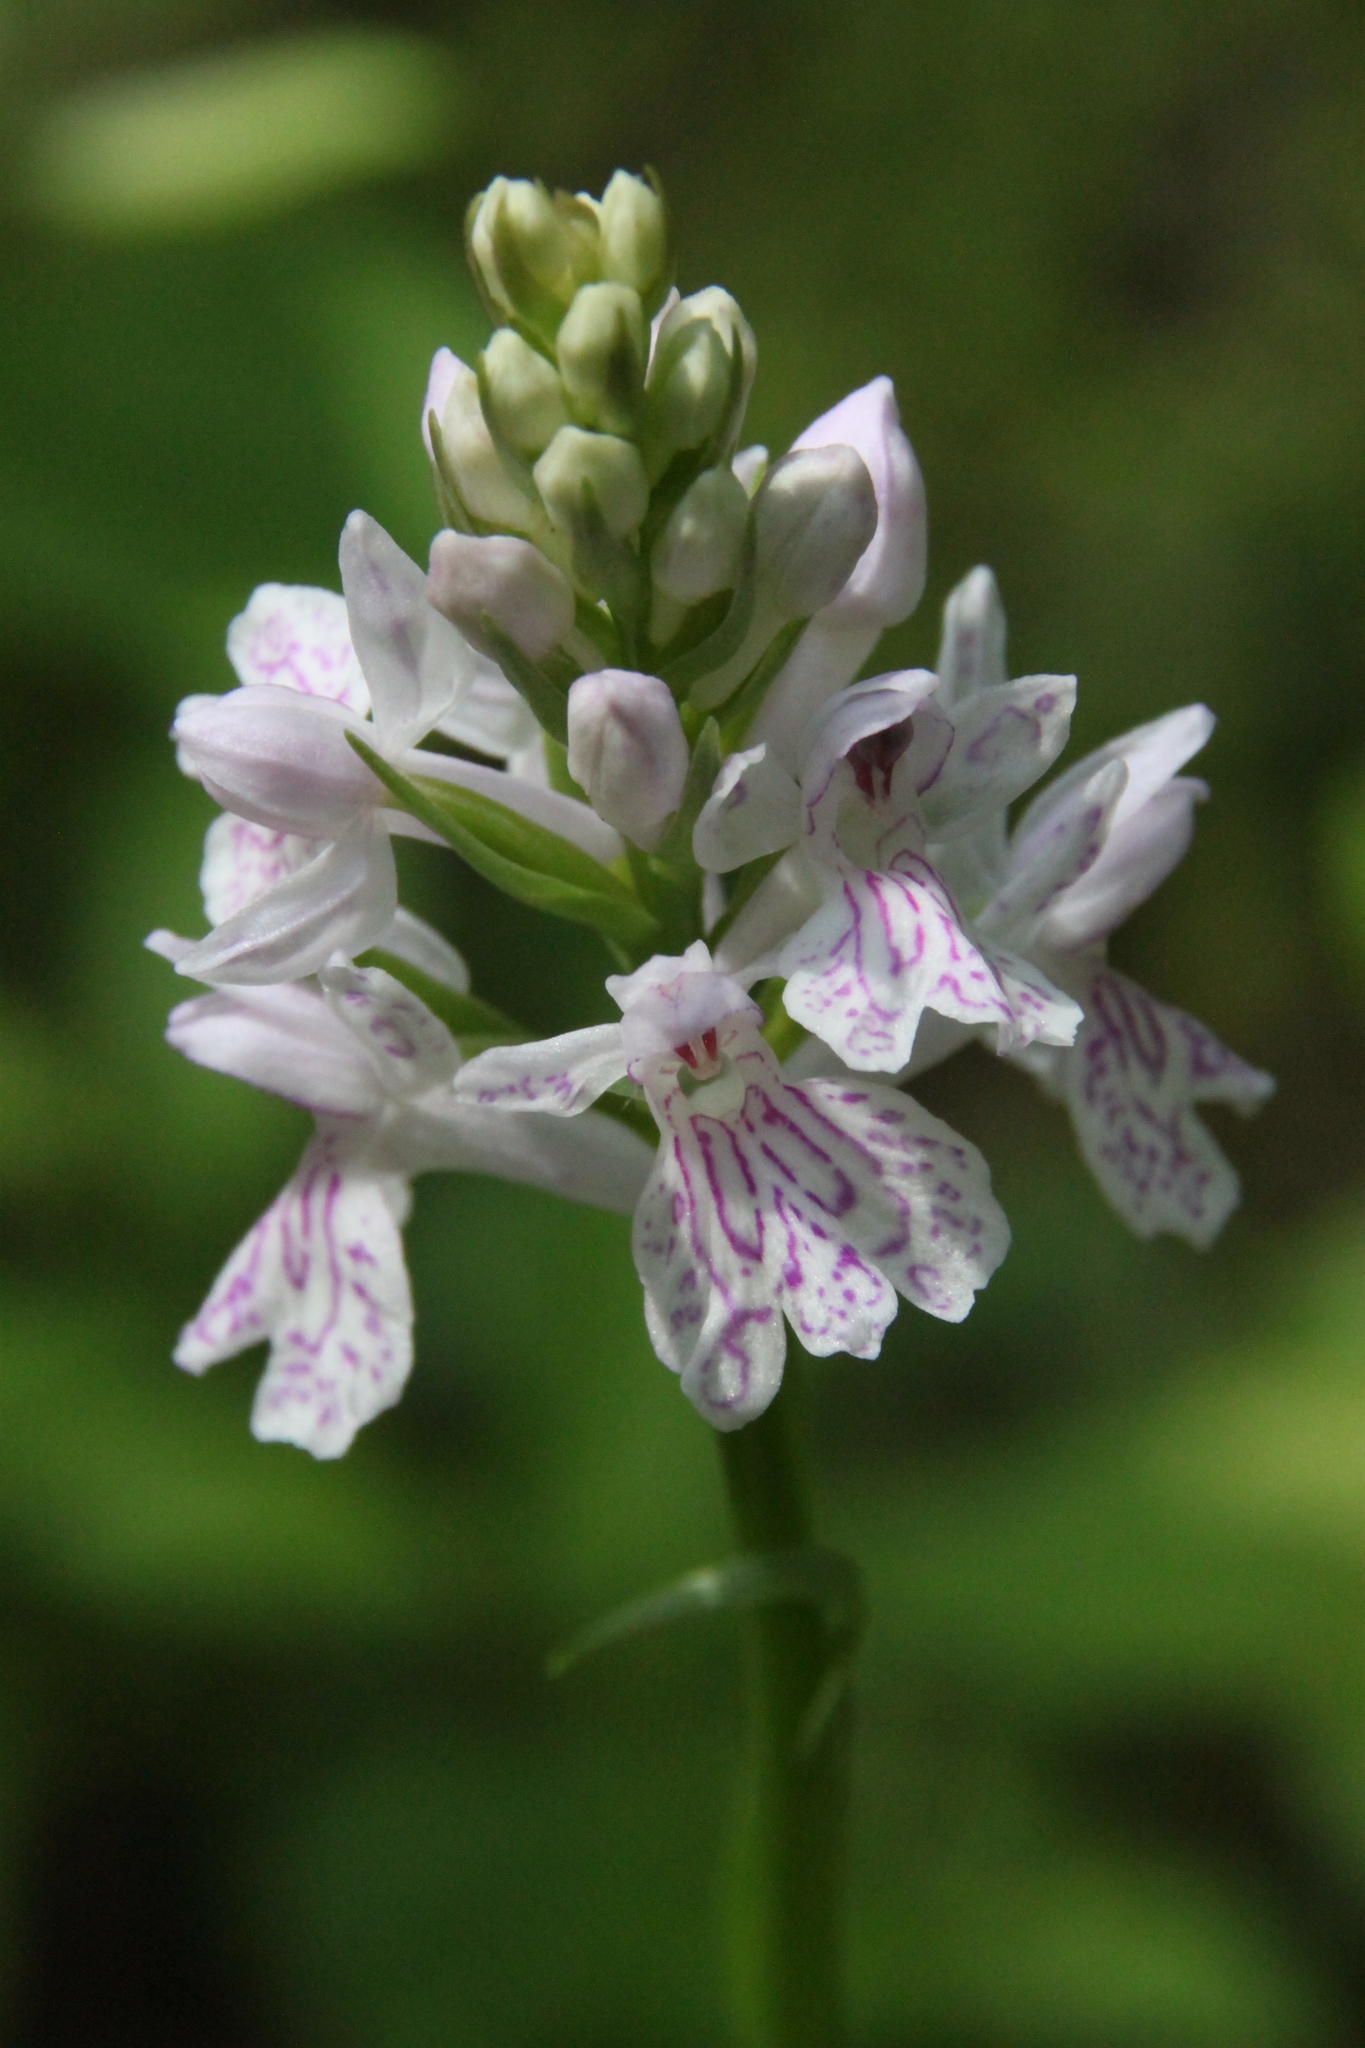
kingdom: Plantae
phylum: Tracheophyta
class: Liliopsida
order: Asparagales
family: Orchidaceae
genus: Dactylorhiza
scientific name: Dactylorhiza maculata
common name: Heath spotted-orchid
